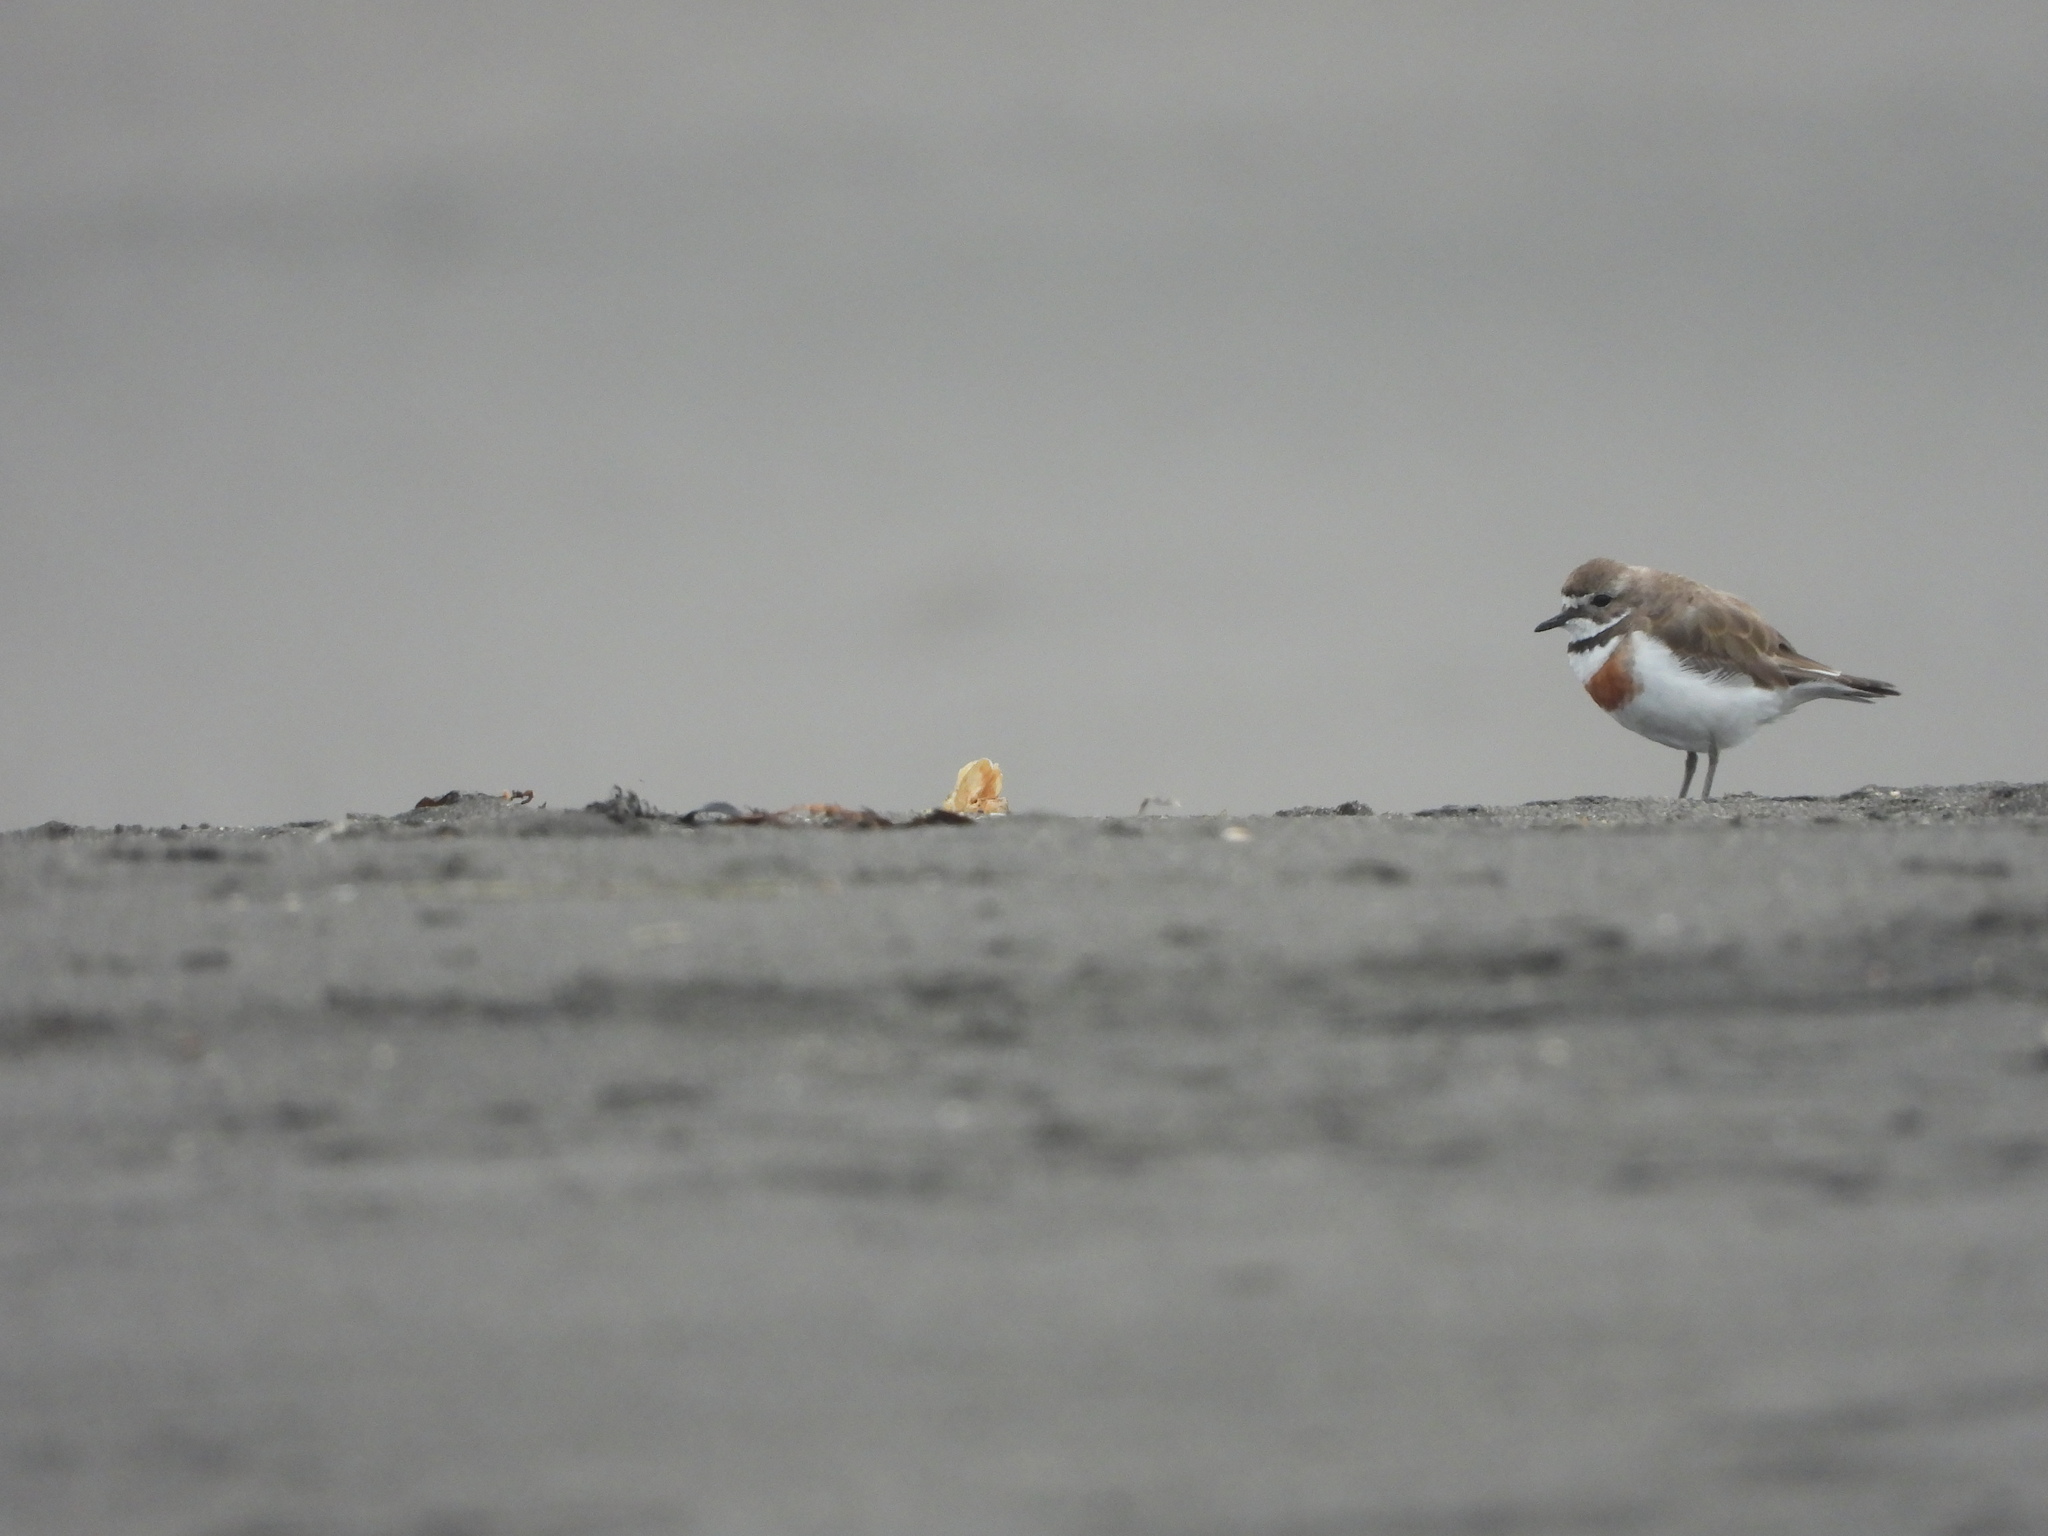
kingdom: Animalia
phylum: Chordata
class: Aves
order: Charadriiformes
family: Charadriidae
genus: Anarhynchus
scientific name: Anarhynchus
